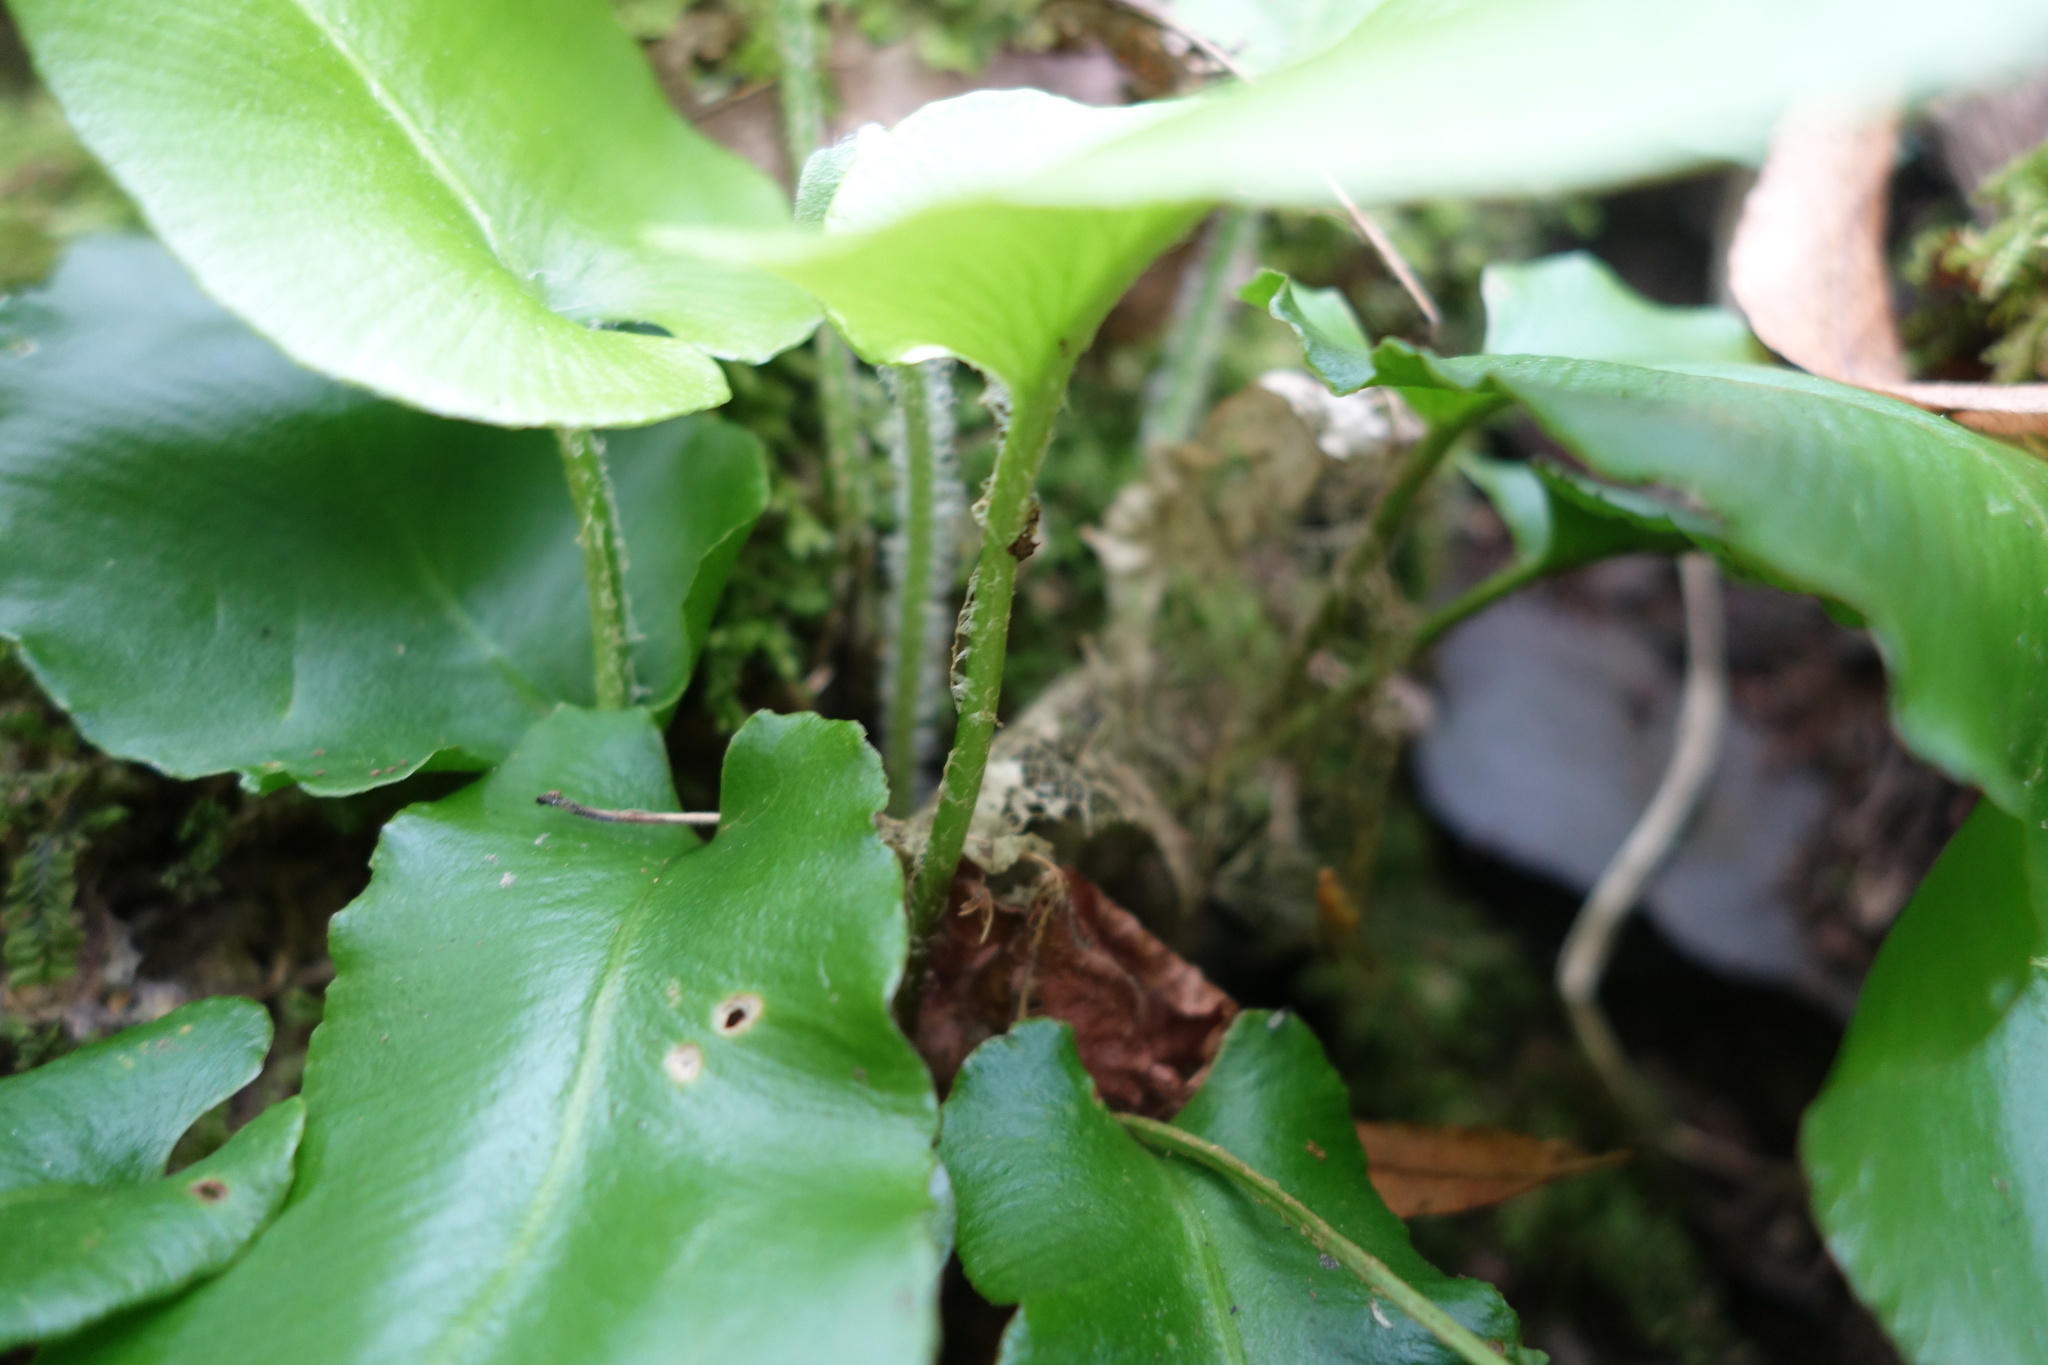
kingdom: Plantae
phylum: Tracheophyta
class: Polypodiopsida
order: Polypodiales
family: Aspleniaceae
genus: Asplenium
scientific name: Asplenium scolopendrium
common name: Hart's-tongue fern
